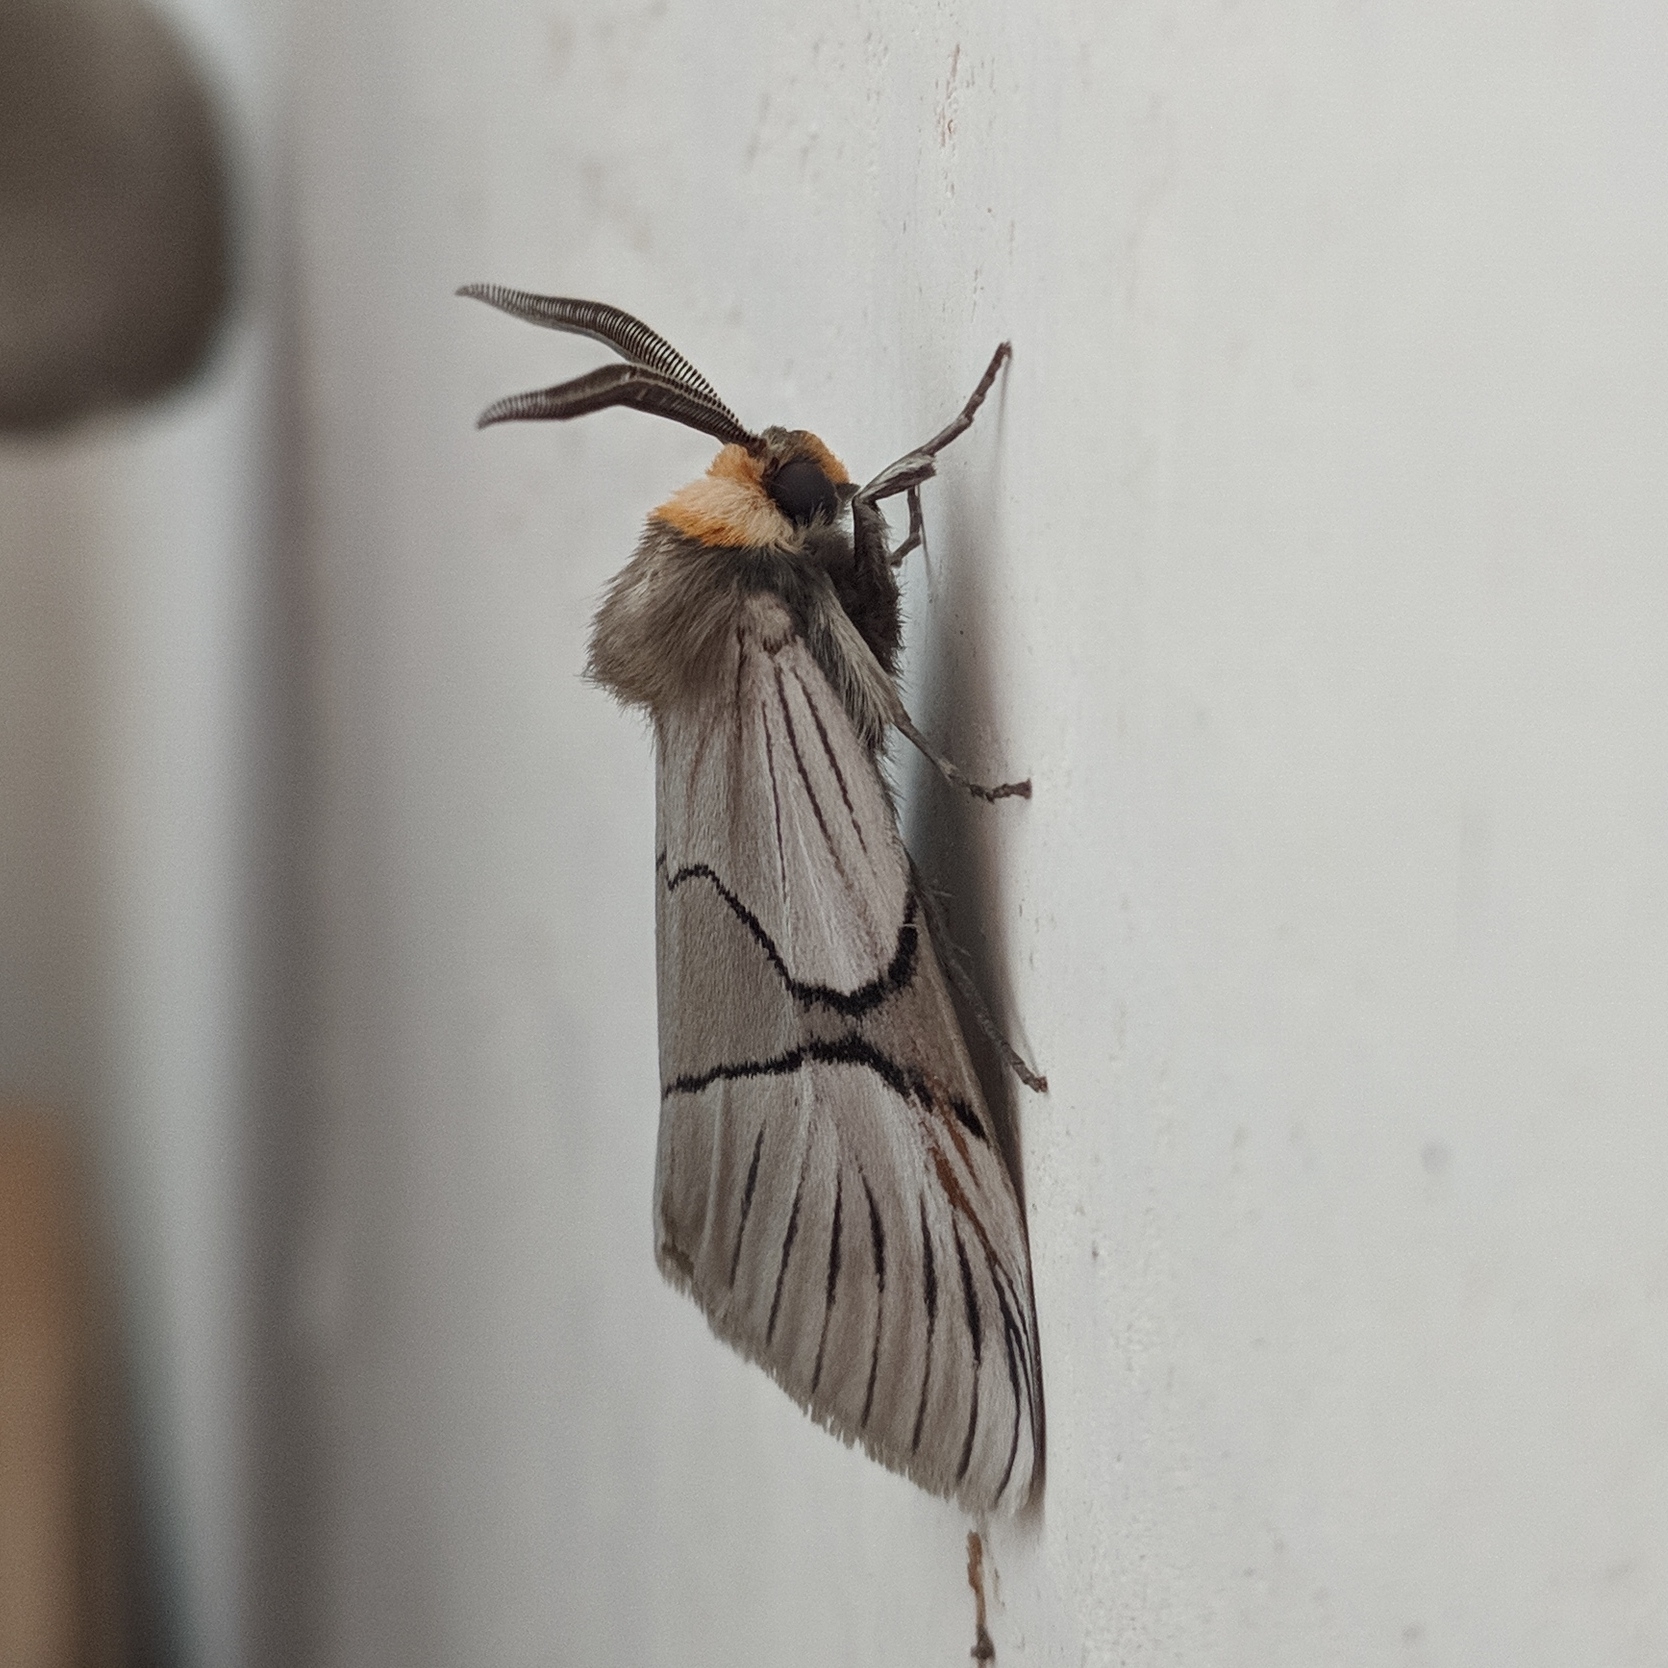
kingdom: Animalia
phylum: Arthropoda
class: Insecta
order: Lepidoptera
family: Noctuidae
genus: Oxythaphora
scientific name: Oxythaphora delta
